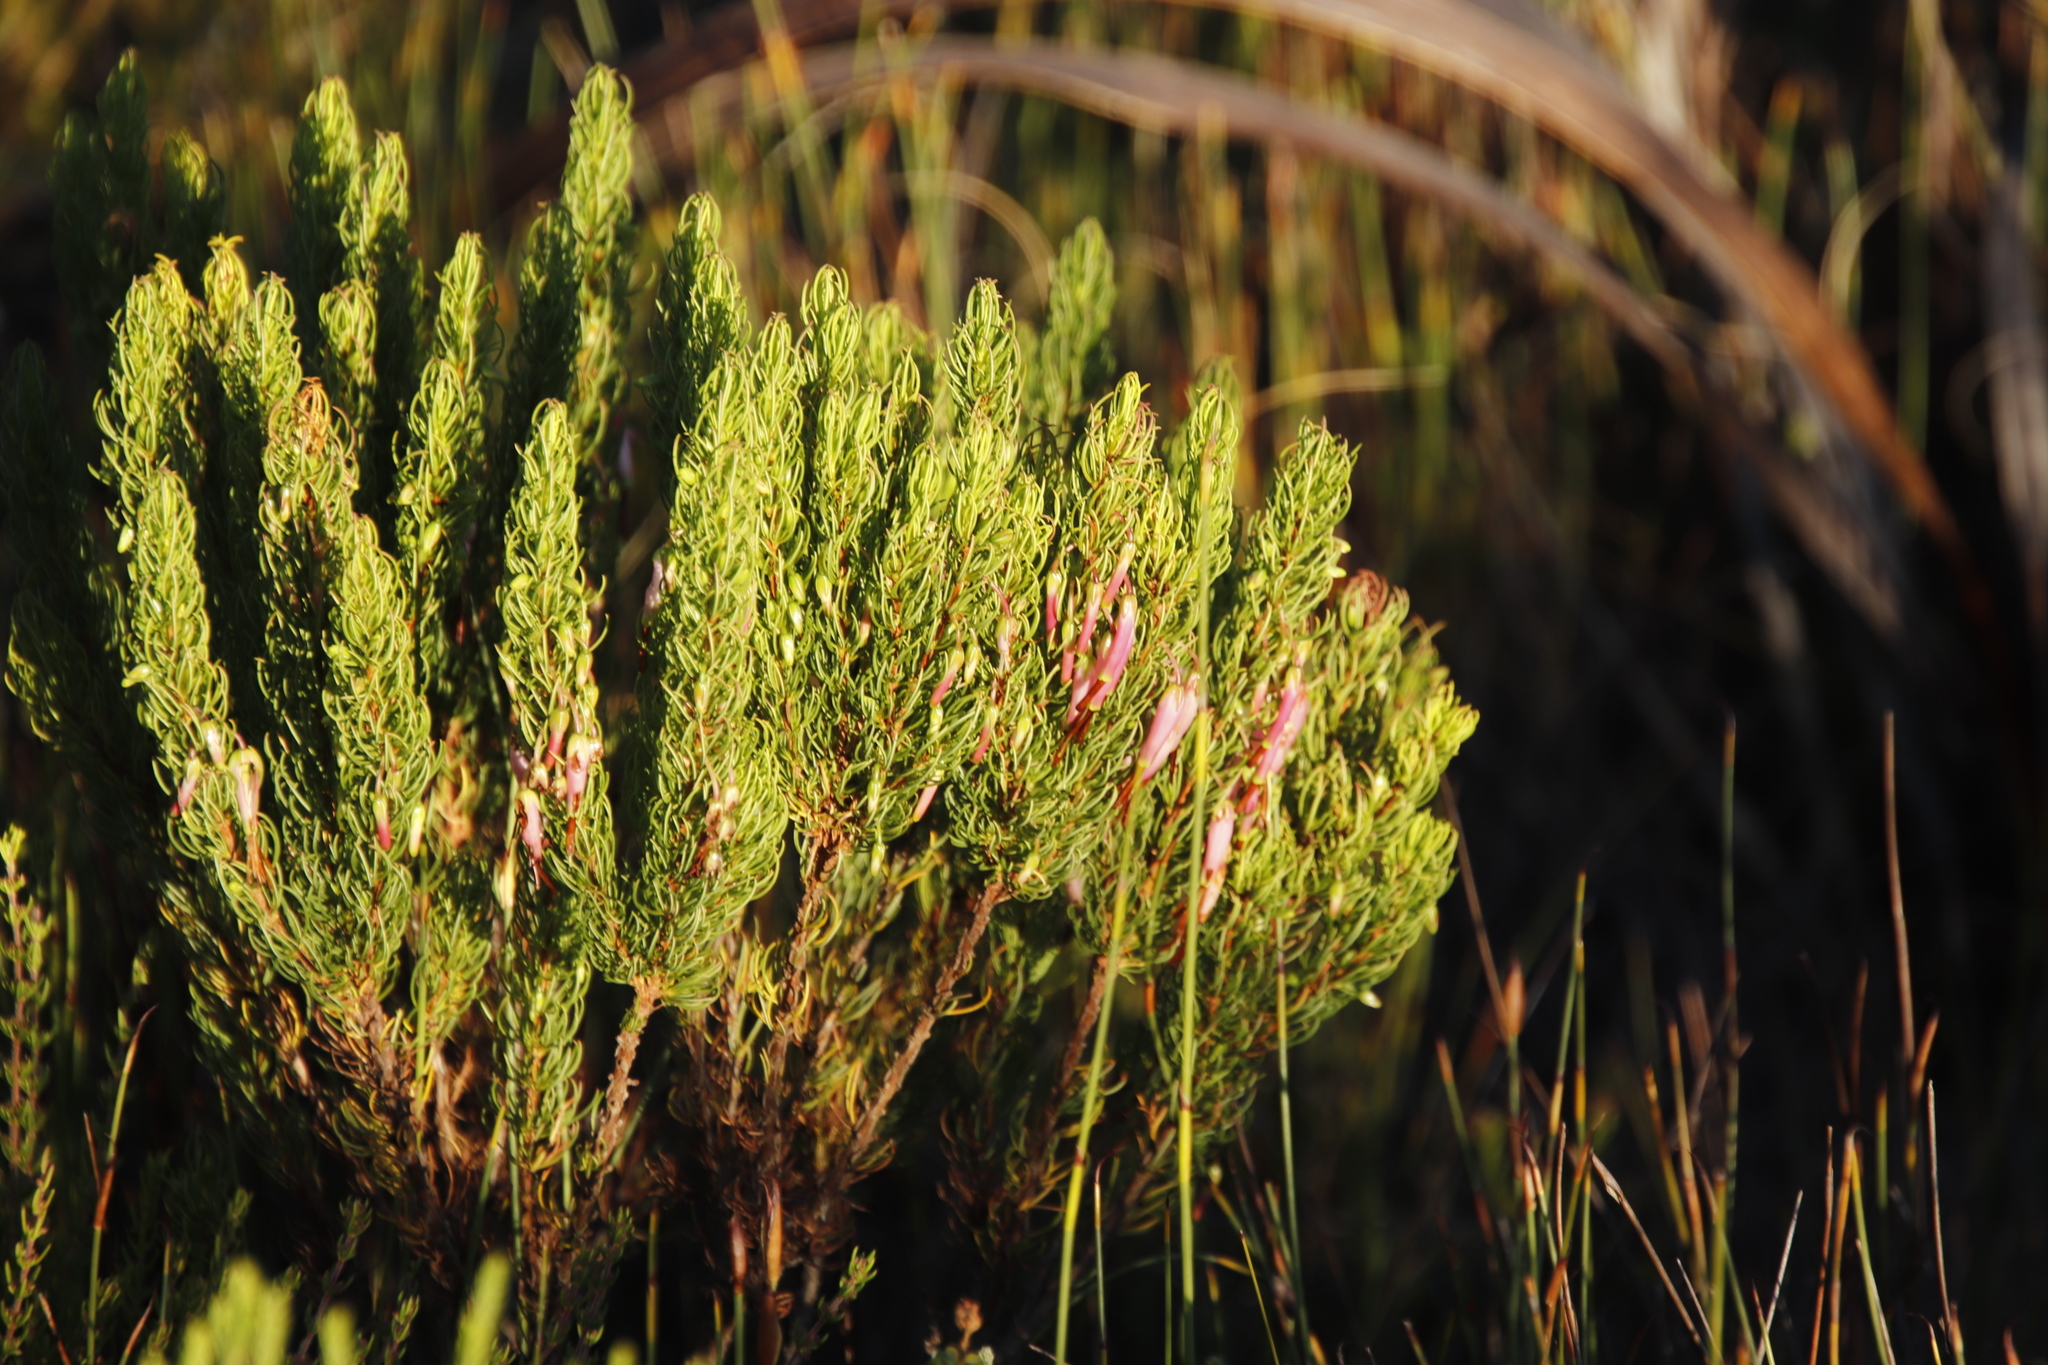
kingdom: Plantae
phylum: Tracheophyta
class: Magnoliopsida
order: Ericales
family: Ericaceae
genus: Erica
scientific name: Erica plukenetii
